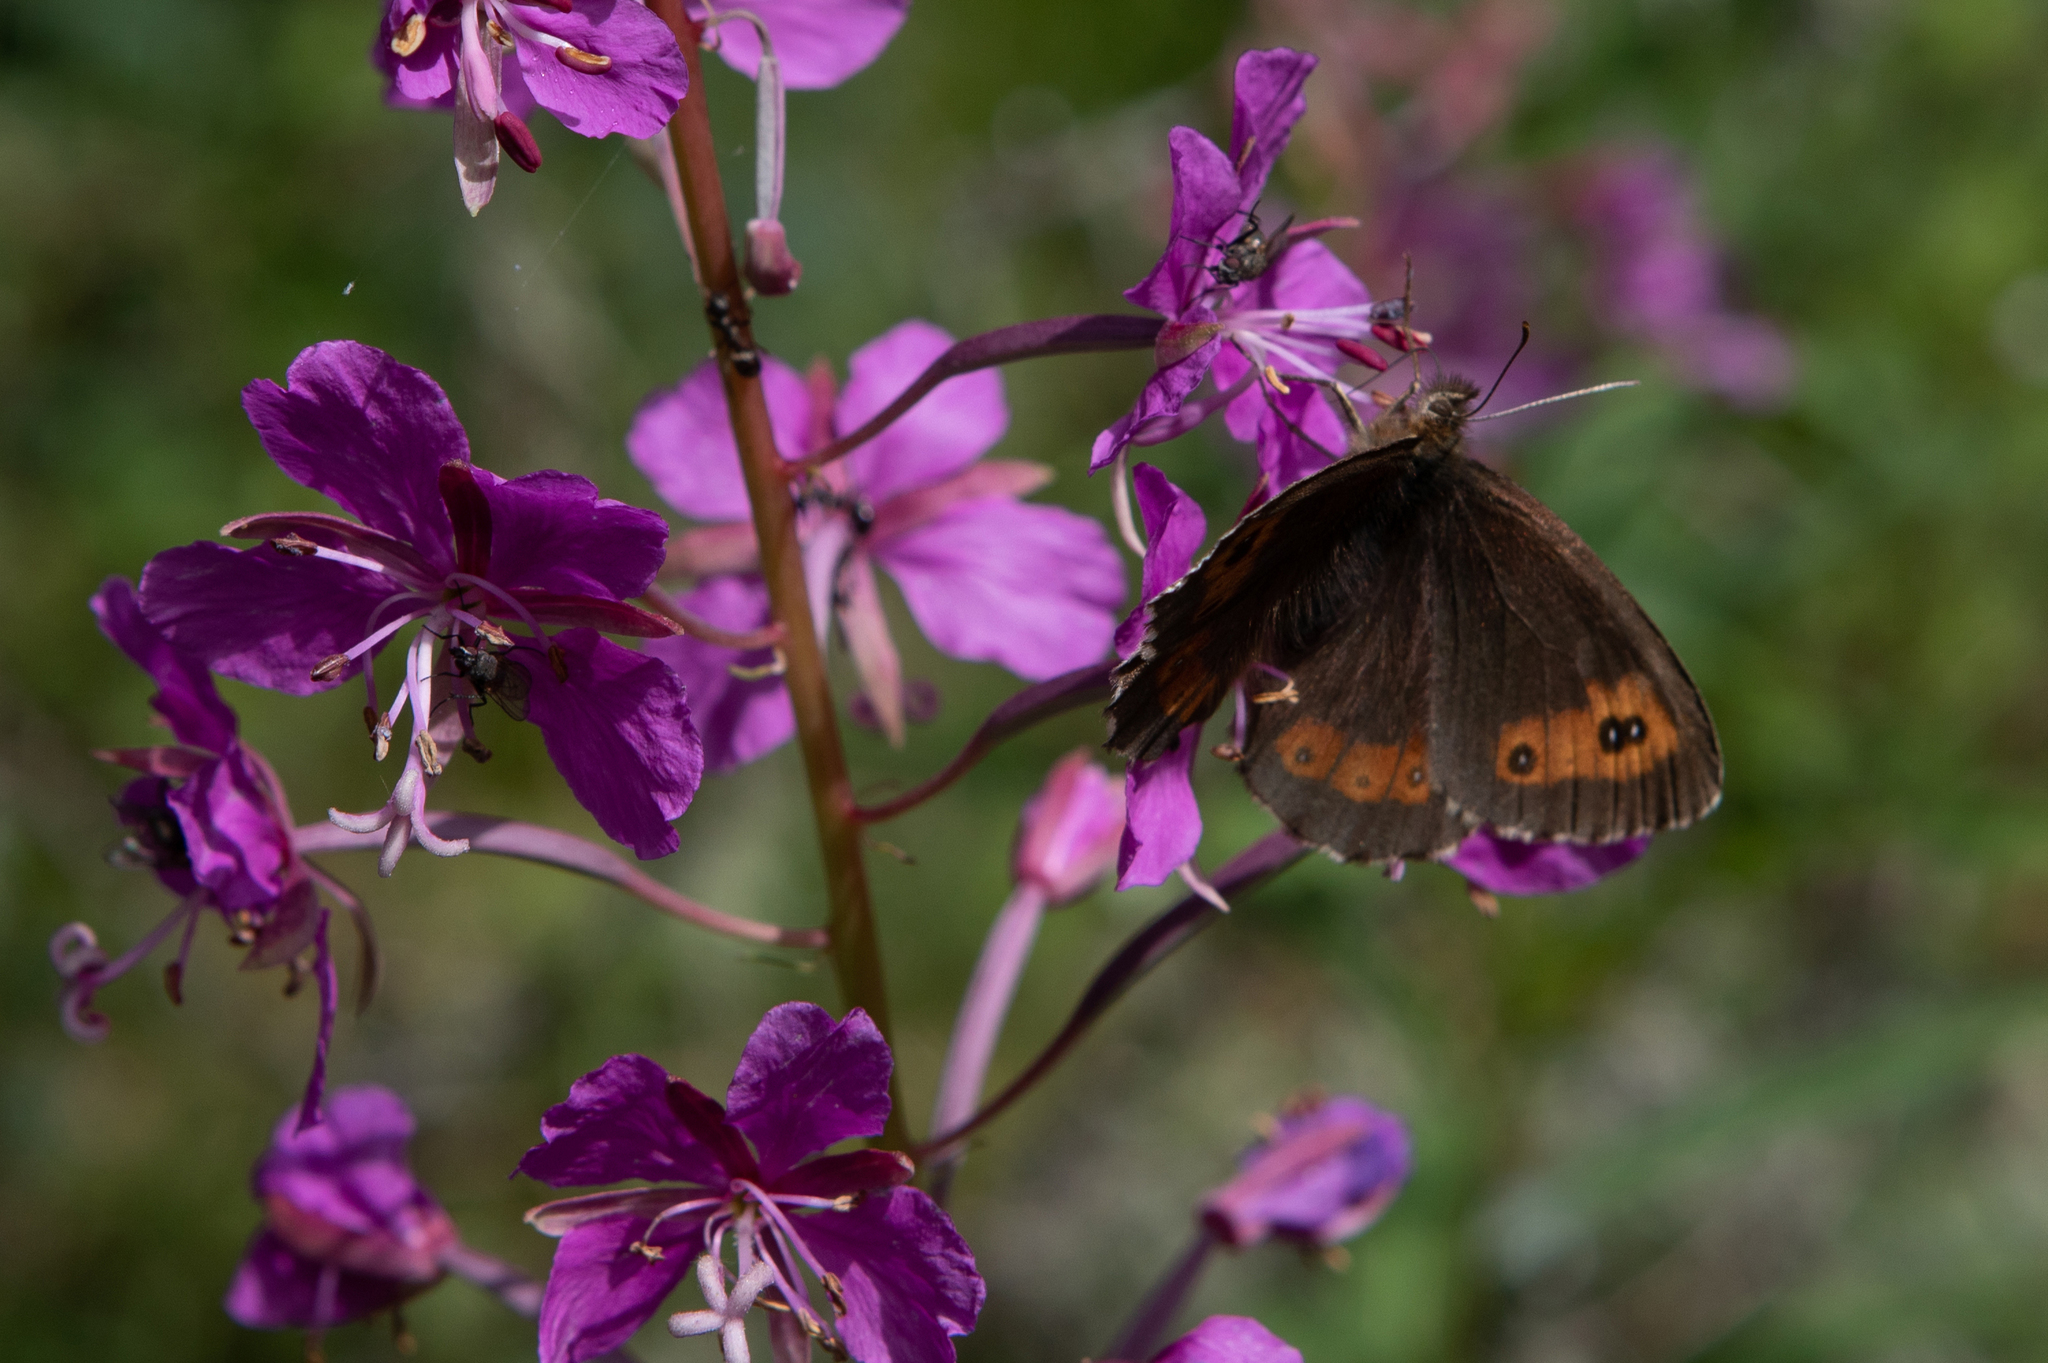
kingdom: Animalia
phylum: Arthropoda
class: Insecta
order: Lepidoptera
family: Nymphalidae
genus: Erebia
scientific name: Erebia ligea
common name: Arran brown
